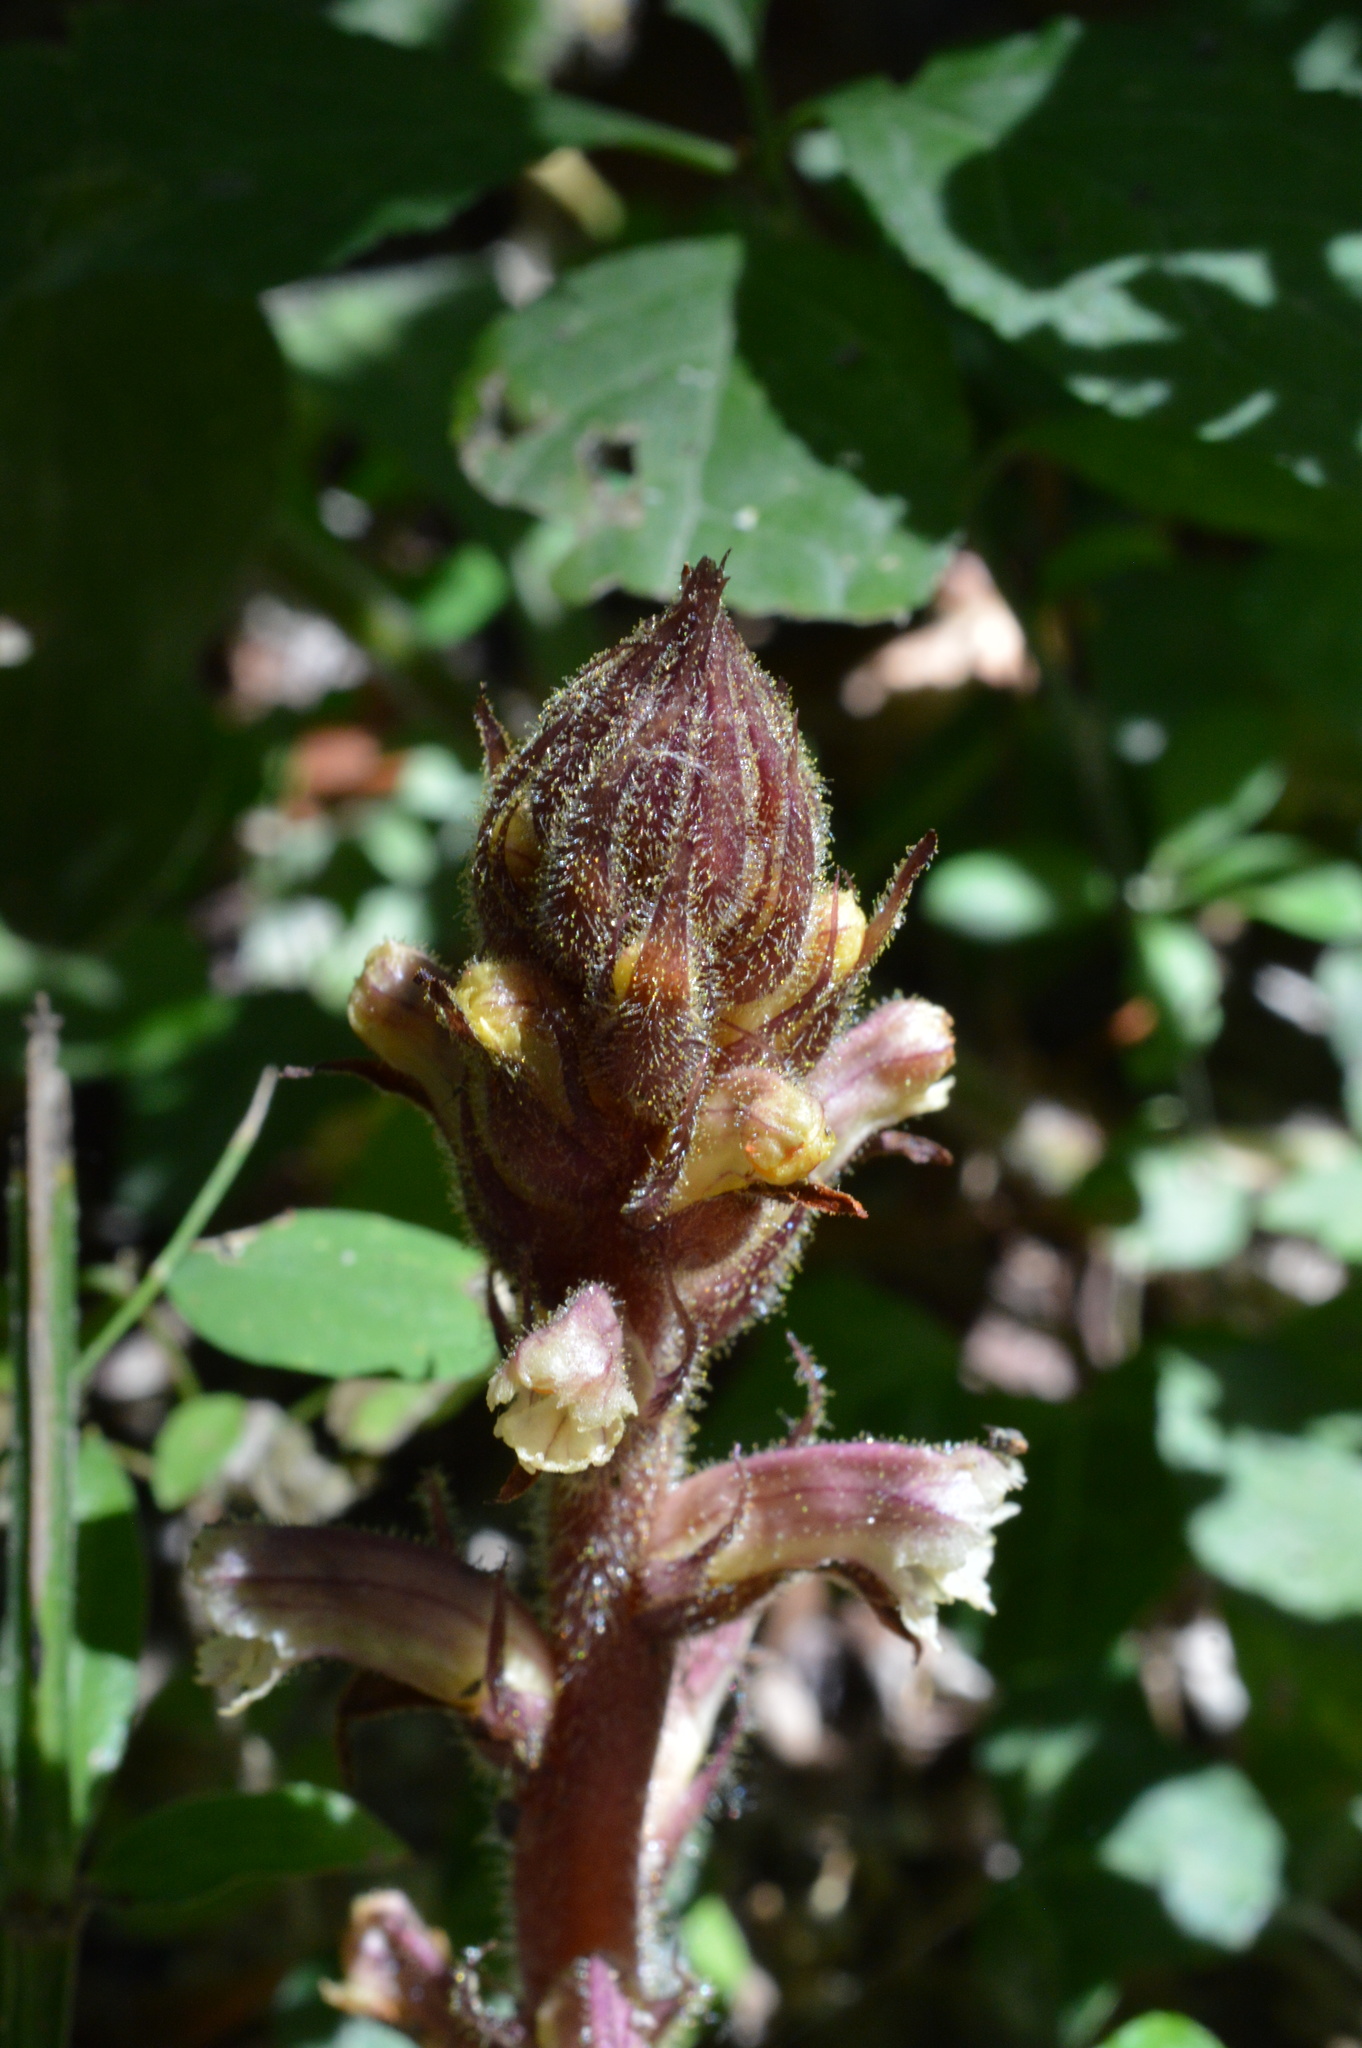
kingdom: Plantae
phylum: Tracheophyta
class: Magnoliopsida
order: Lamiales
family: Orobanchaceae
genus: Orobanche
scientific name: Orobanche hederae
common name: Ivy broomrape
